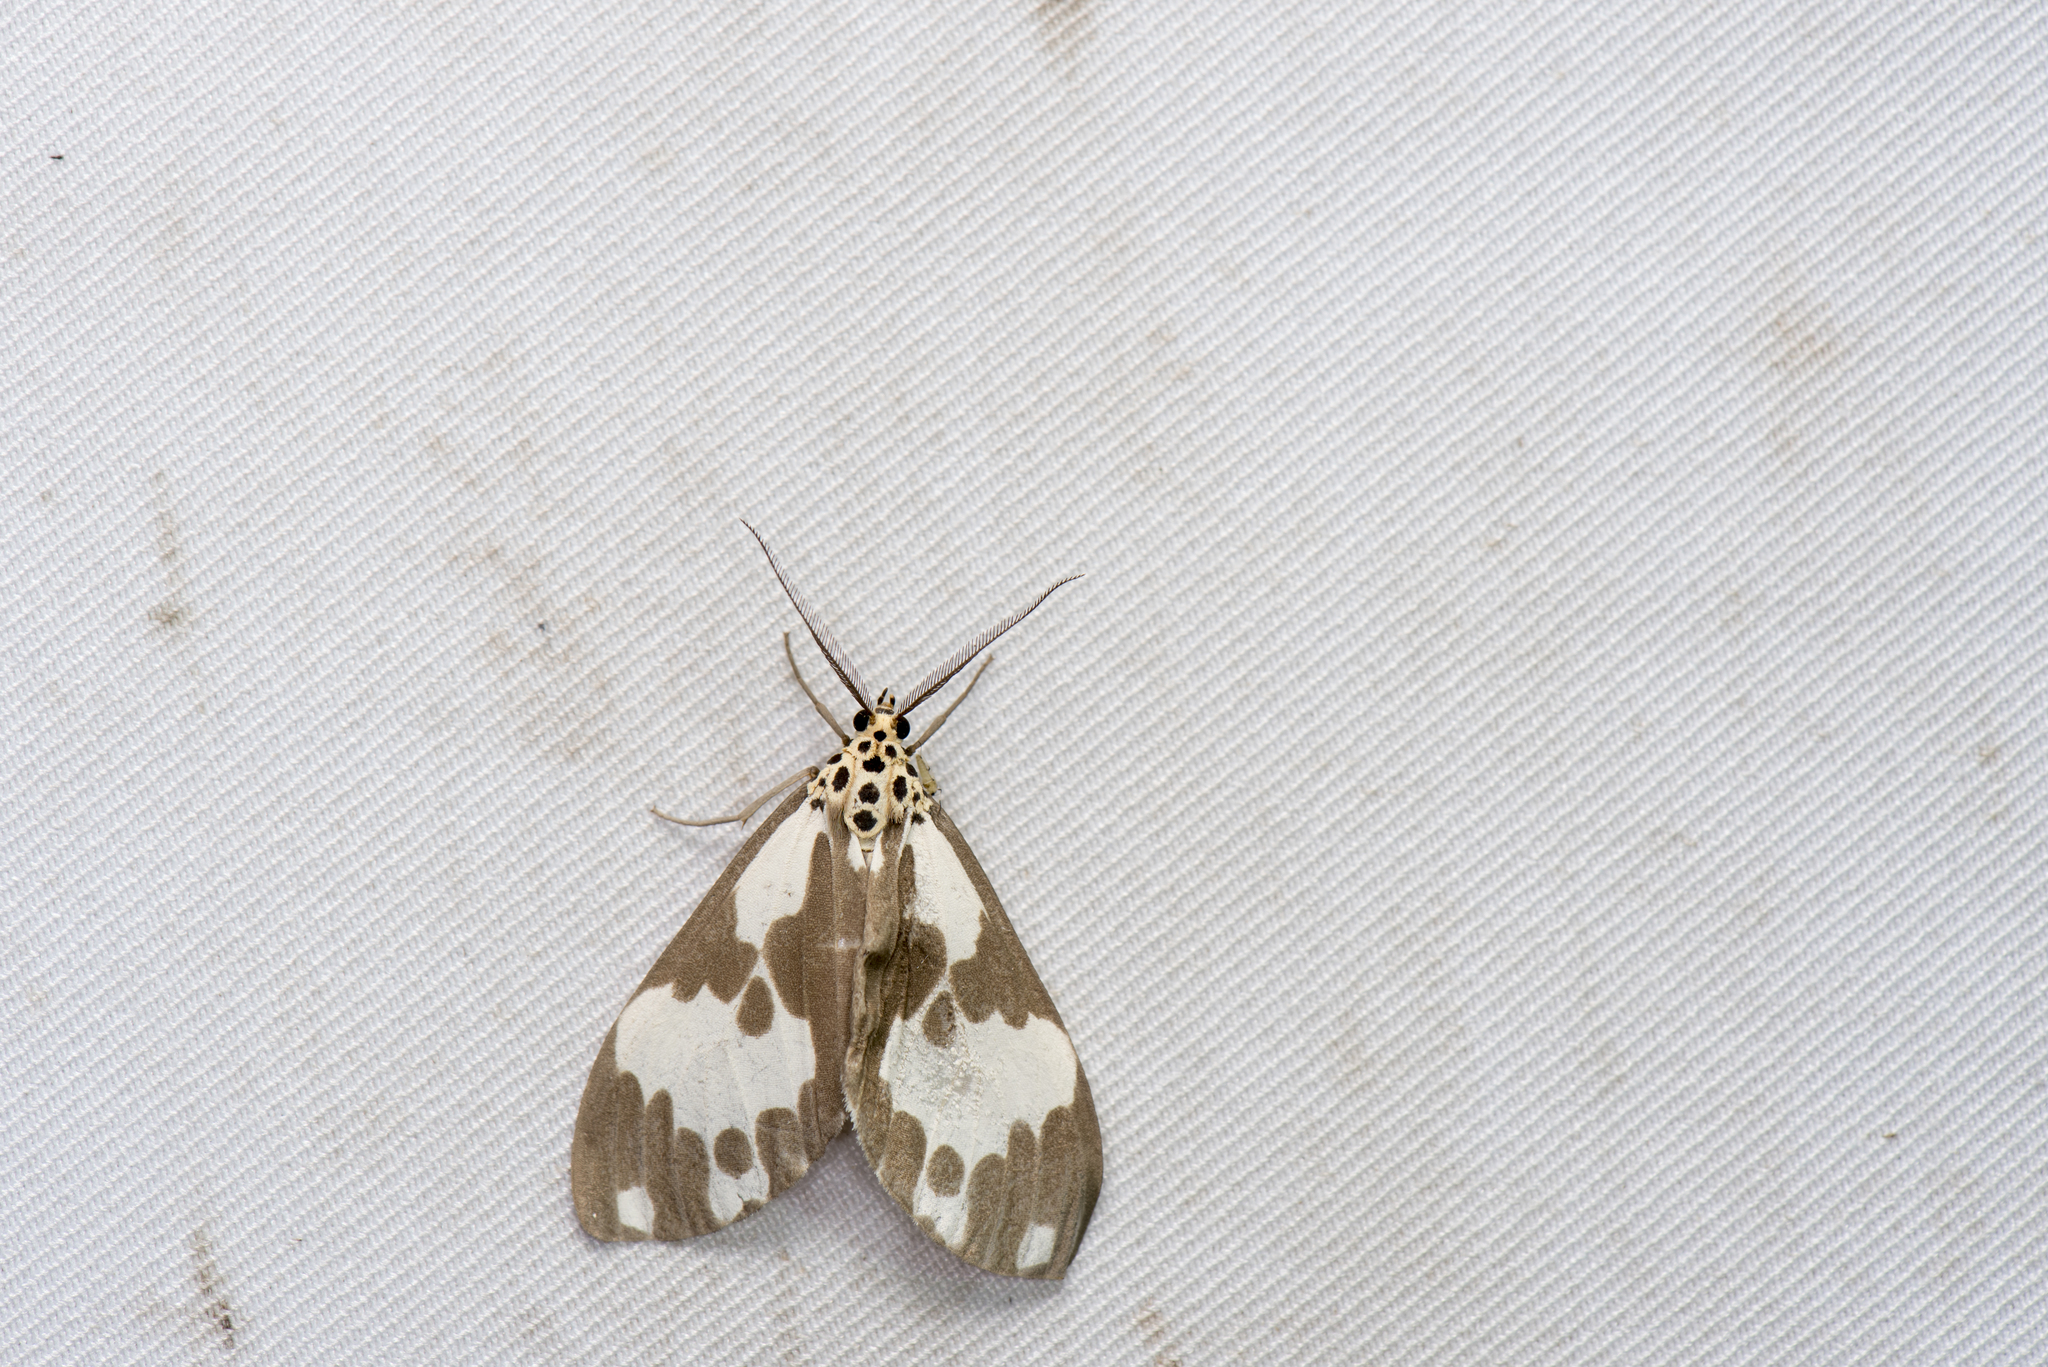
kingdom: Animalia
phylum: Arthropoda
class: Insecta
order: Lepidoptera
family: Erebidae
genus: Nyctemera
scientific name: Nyctemera carissima
